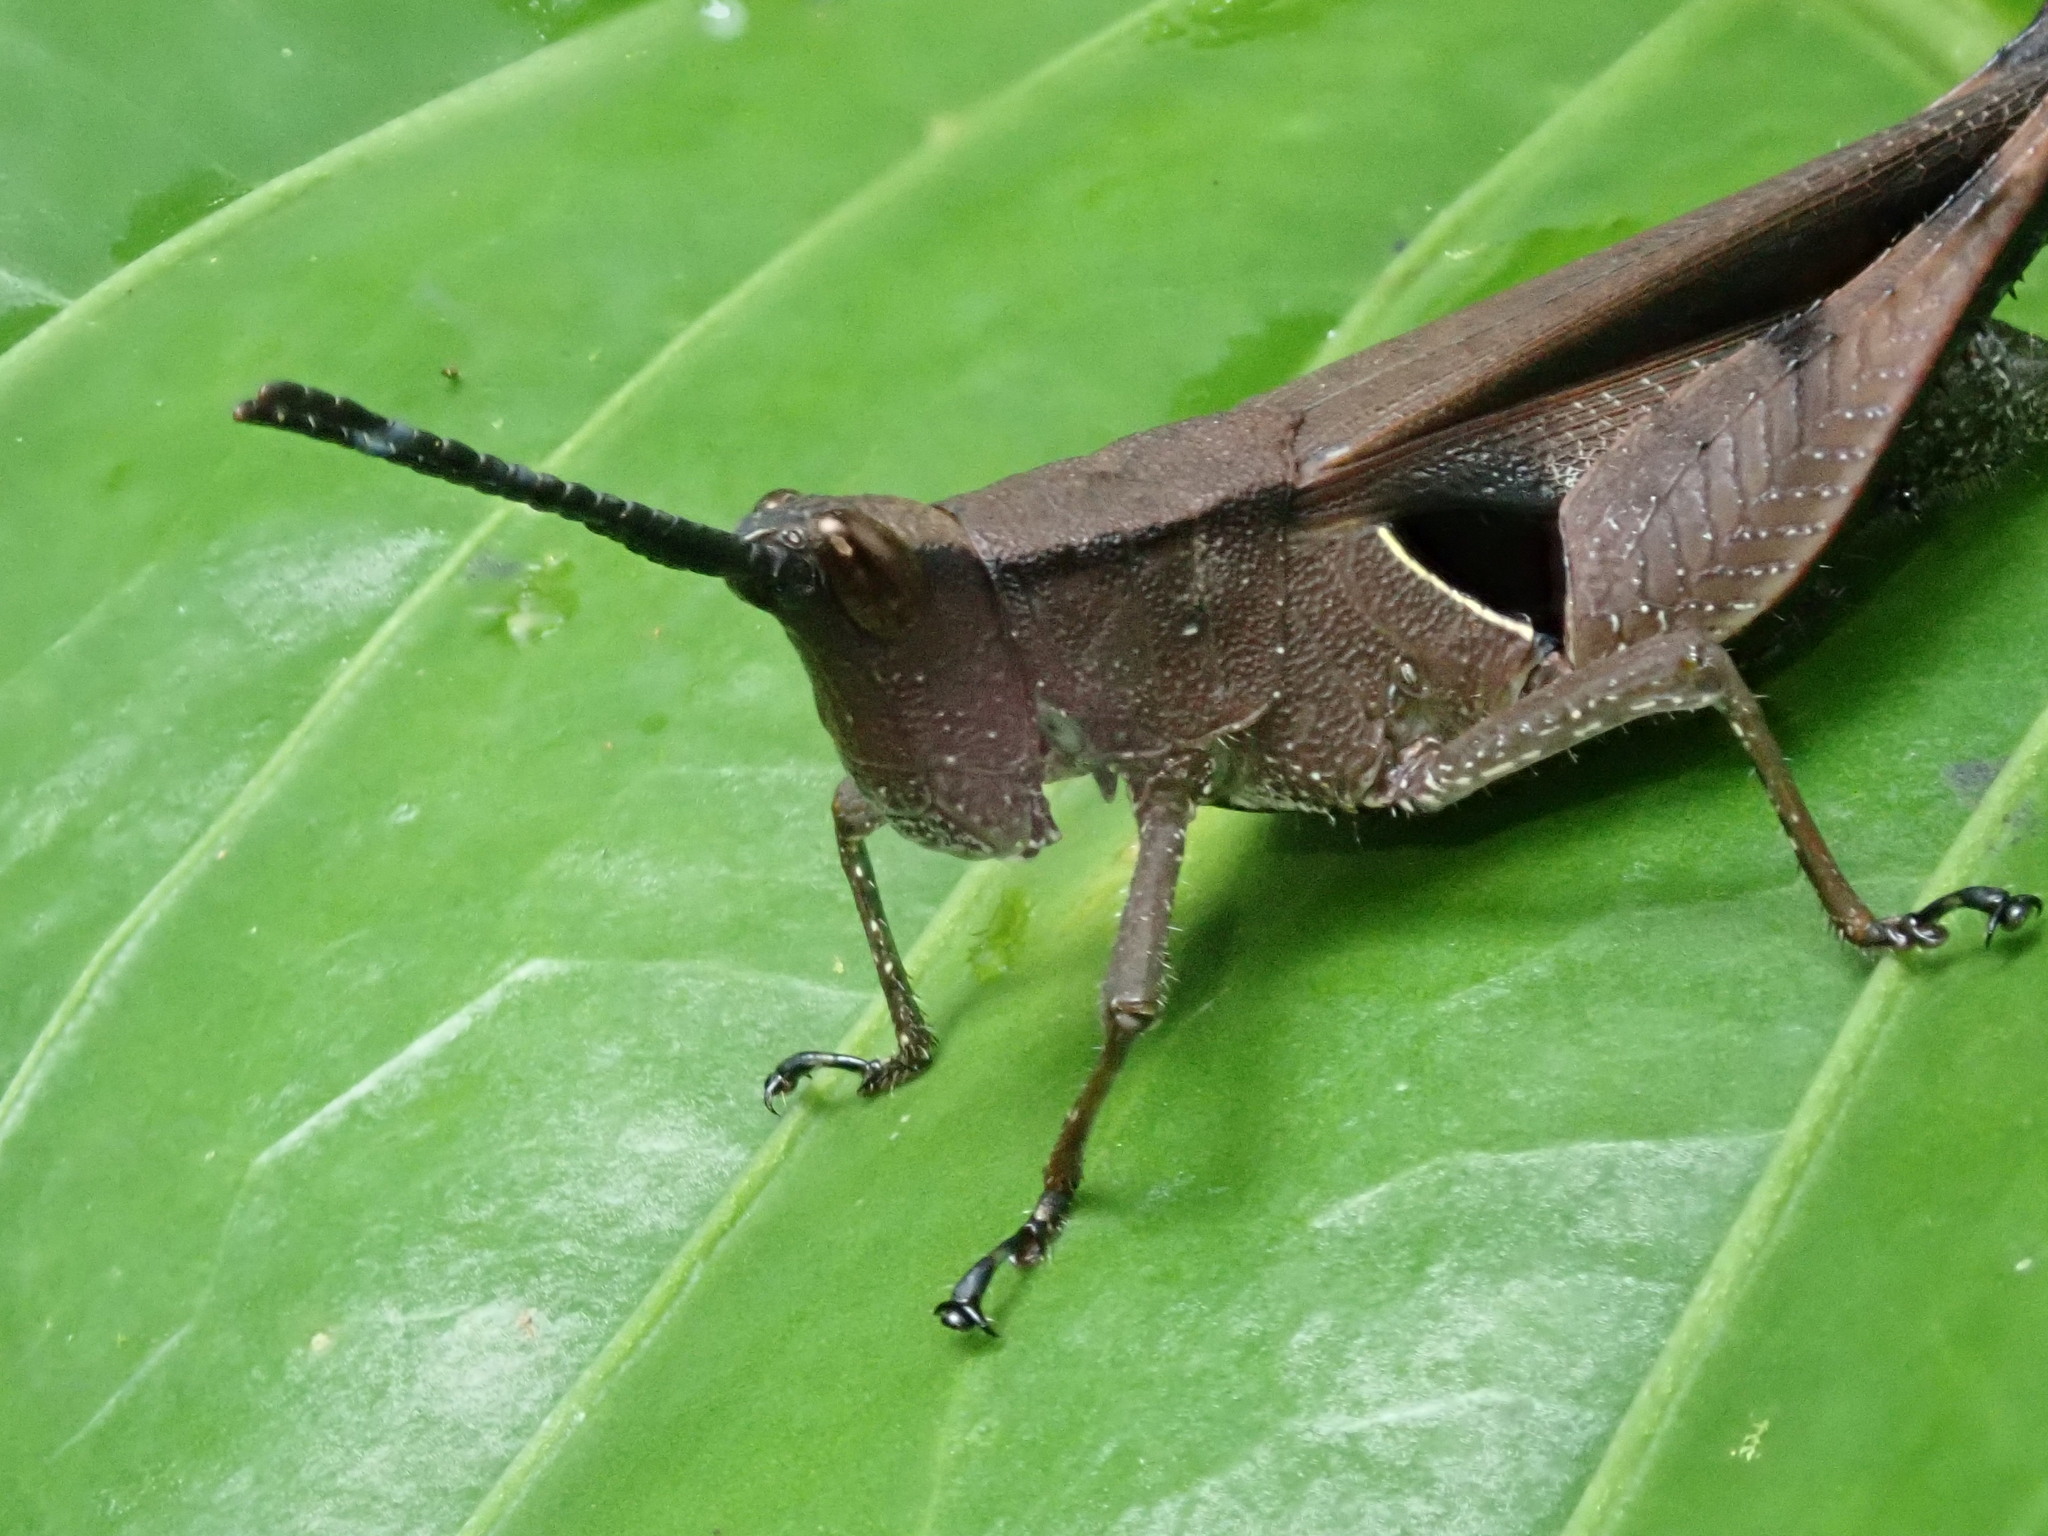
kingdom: Animalia
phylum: Arthropoda
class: Insecta
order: Orthoptera
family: Acrididae
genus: Xiphiola
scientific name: Xiphiola cyanoptera
